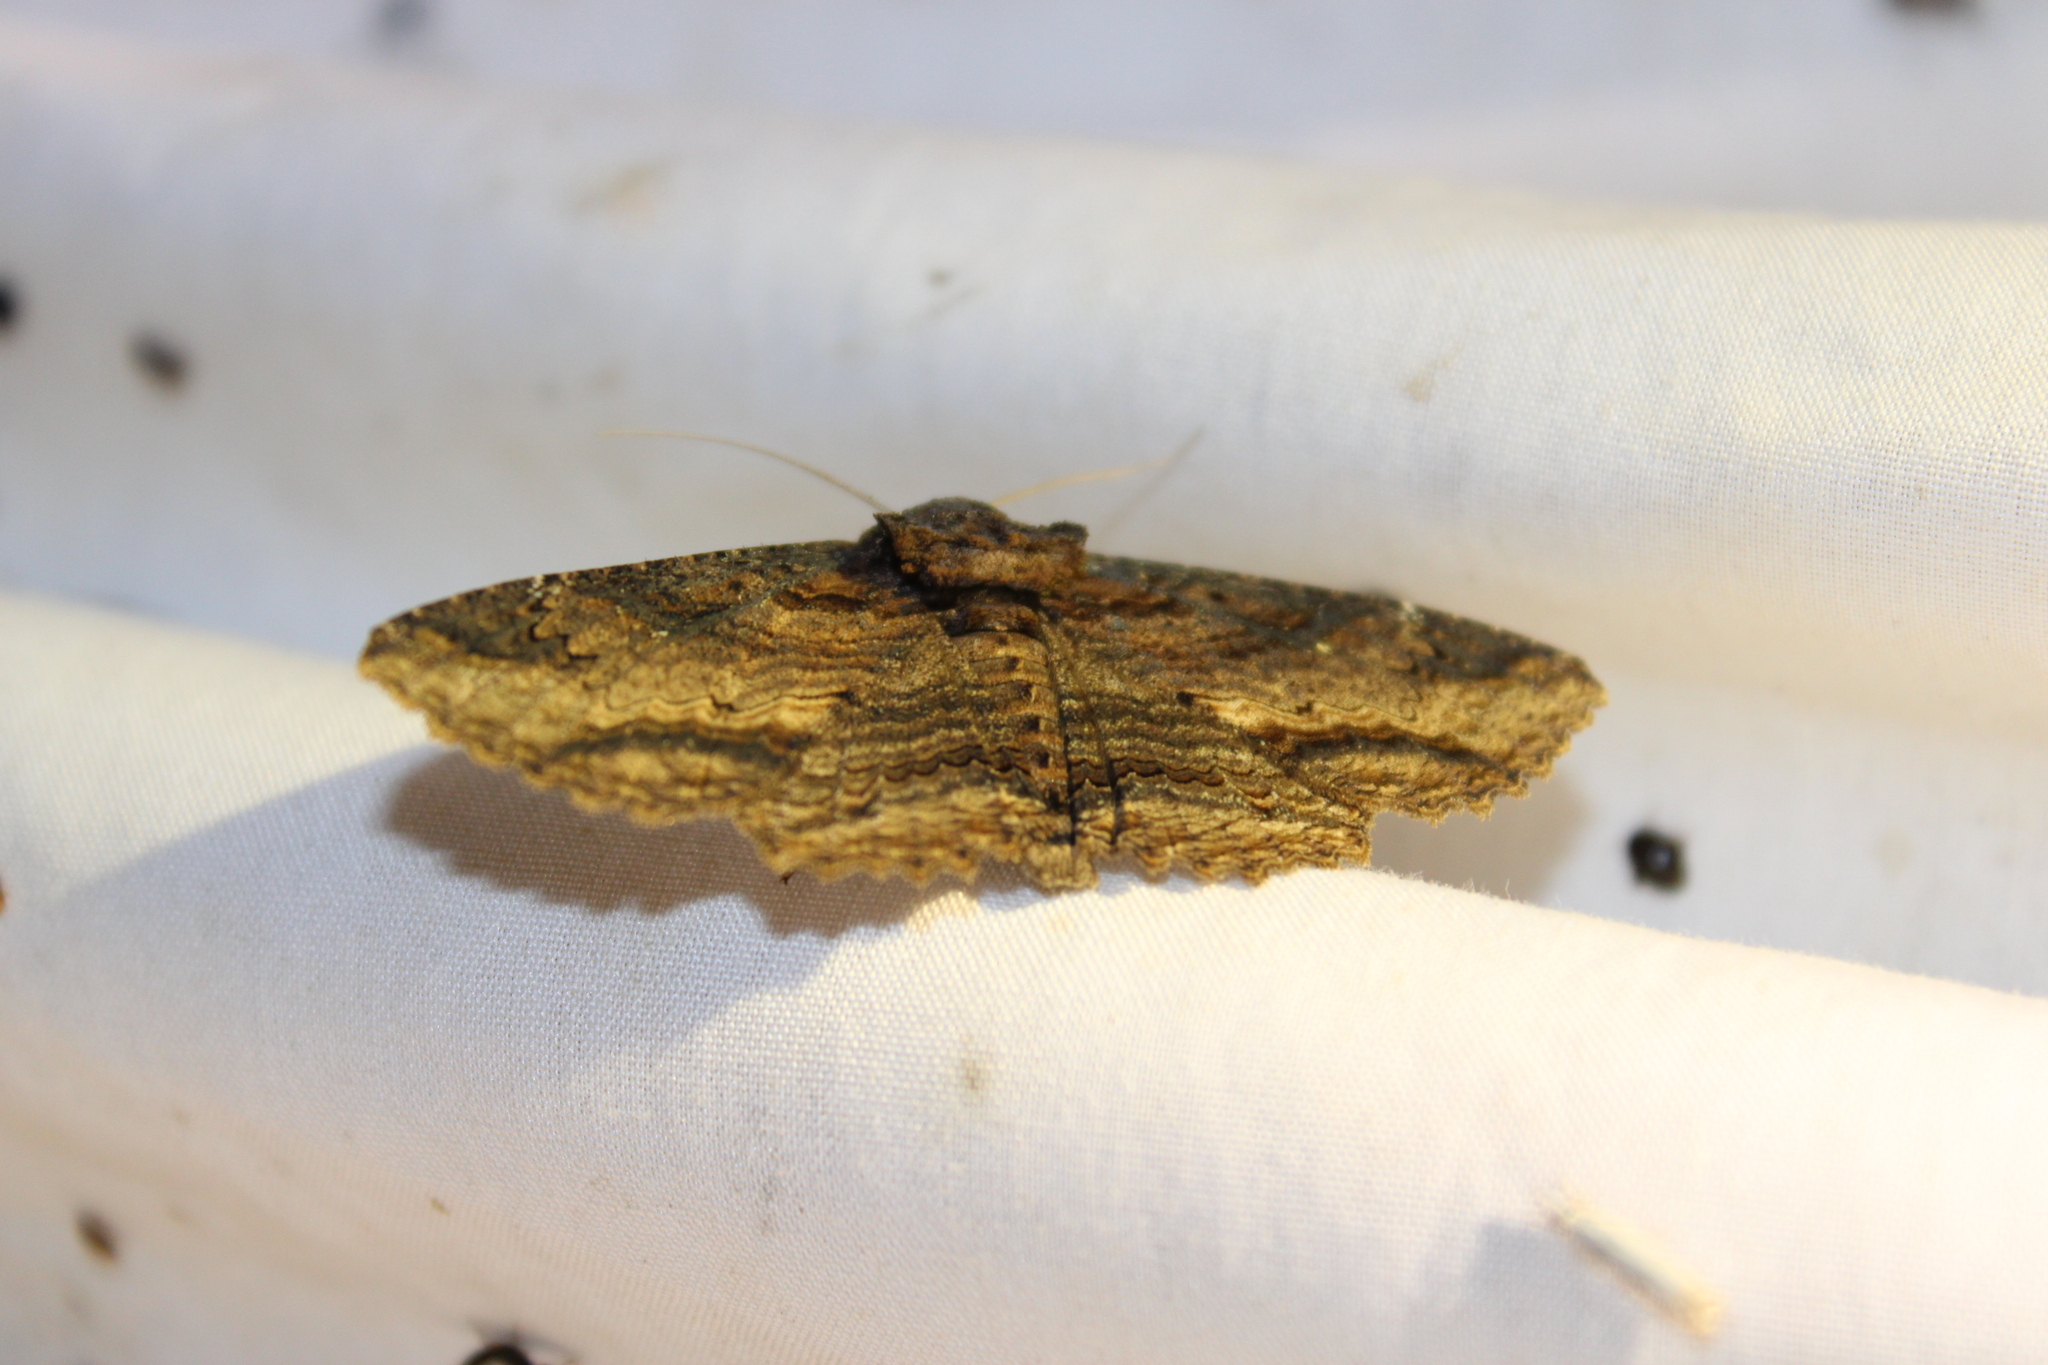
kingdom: Animalia
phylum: Arthropoda
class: Insecta
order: Lepidoptera
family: Erebidae
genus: Zale
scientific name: Zale lunata
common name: Lunate zale moth
